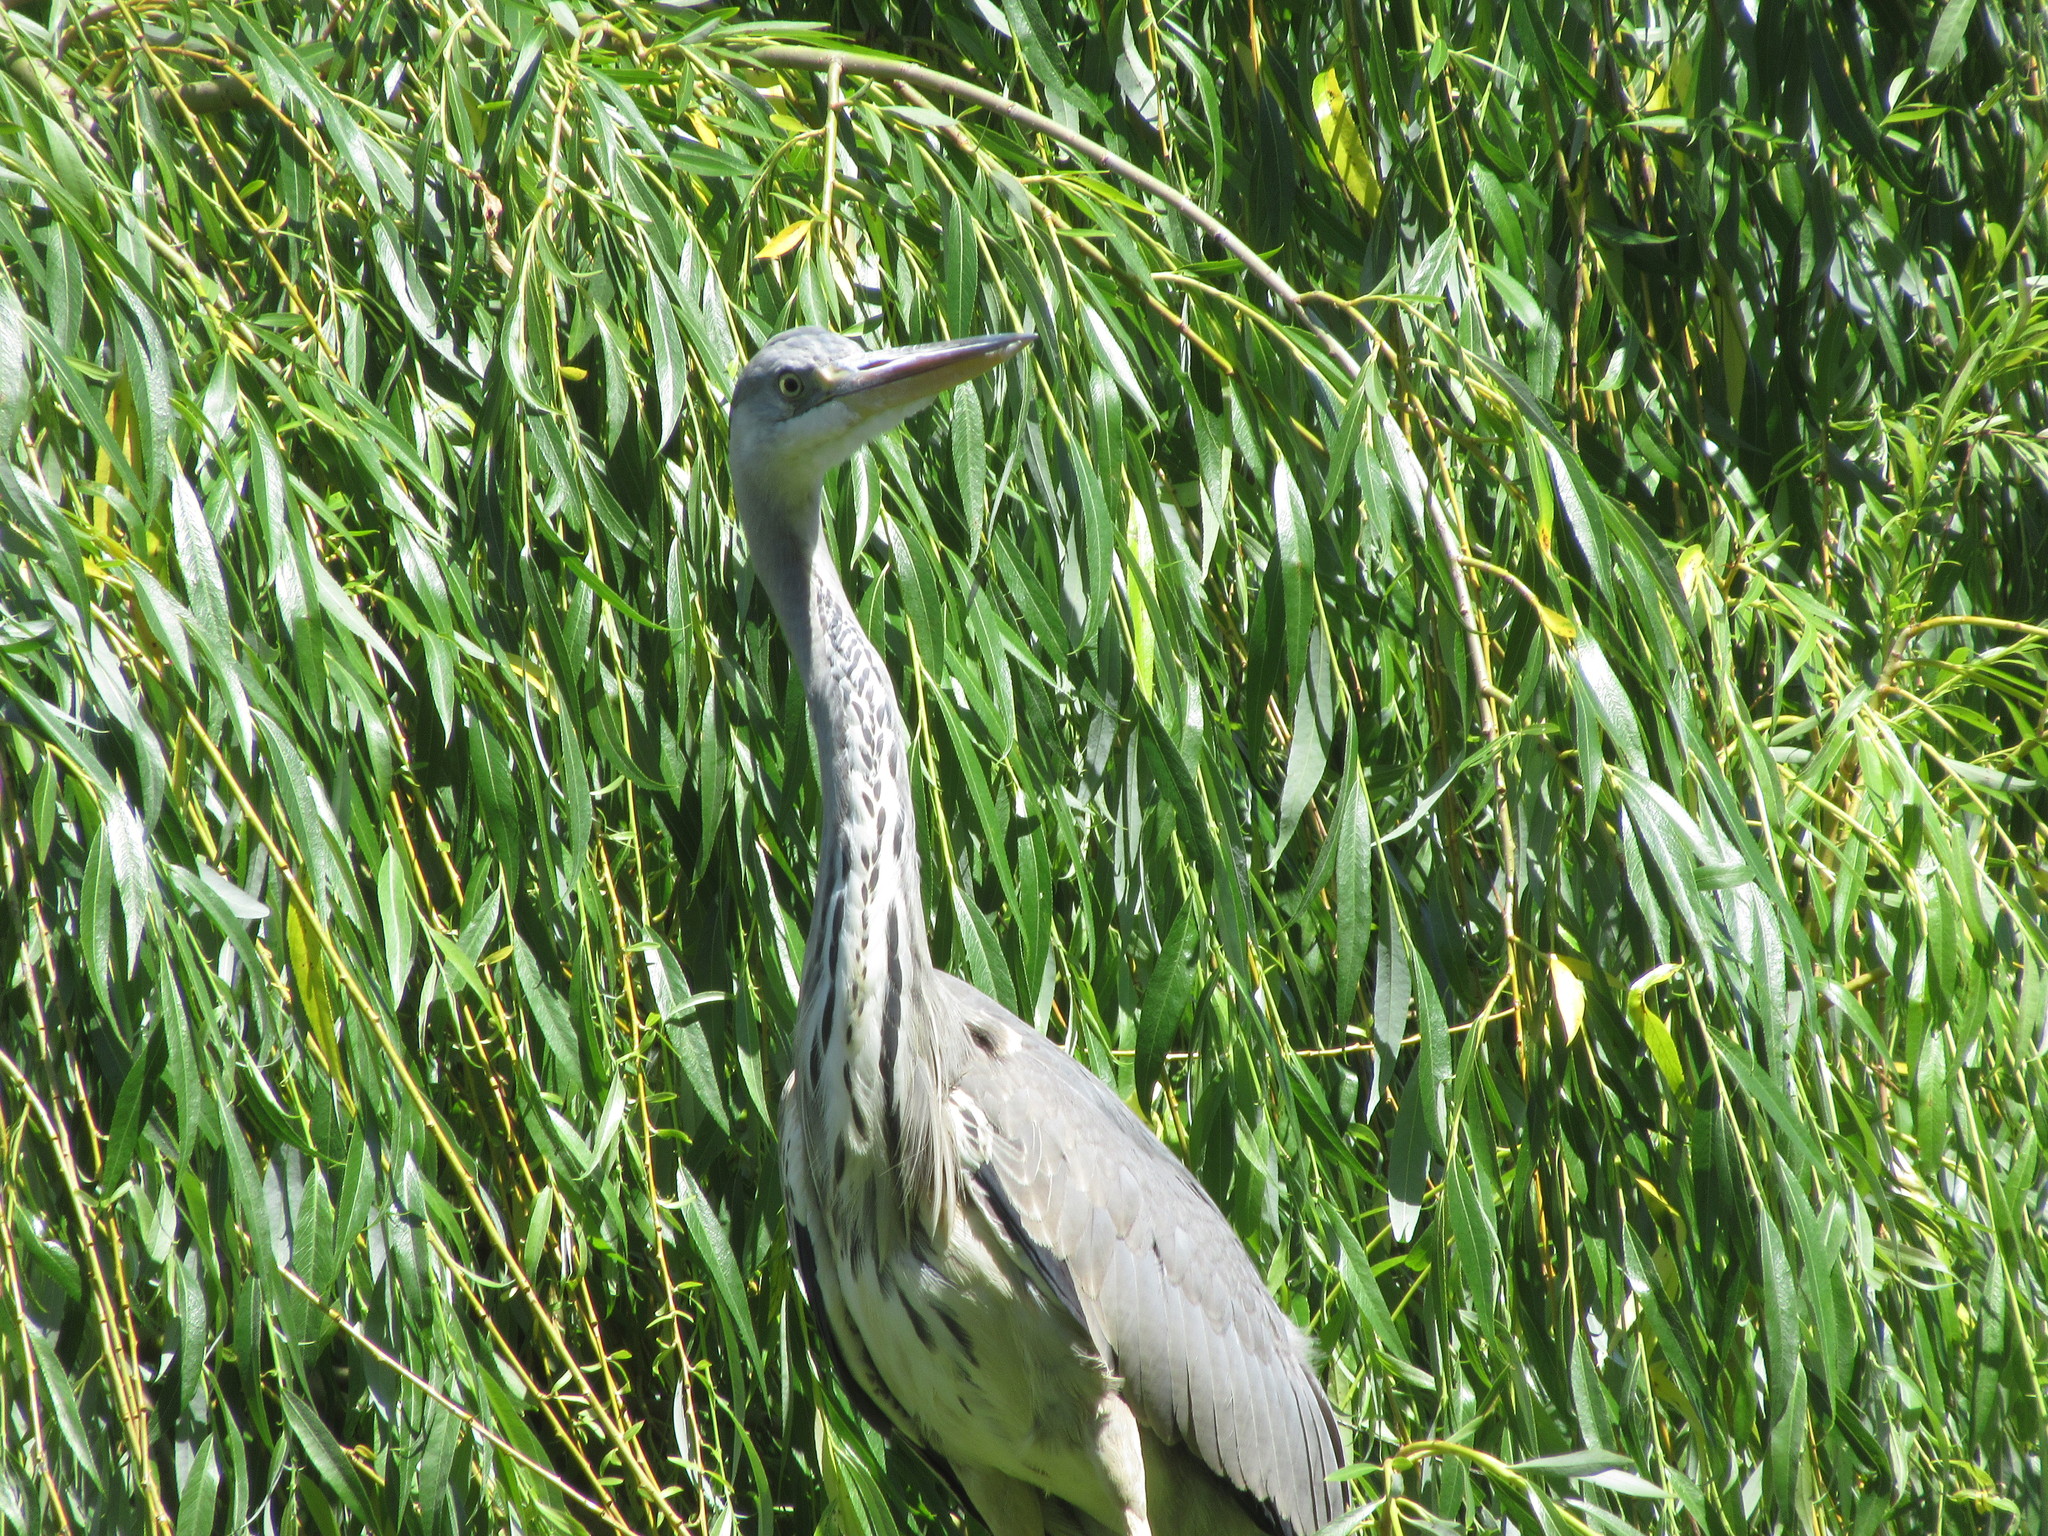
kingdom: Animalia
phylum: Chordata
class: Aves
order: Pelecaniformes
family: Ardeidae
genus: Ardea
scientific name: Ardea cinerea
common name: Grey heron
